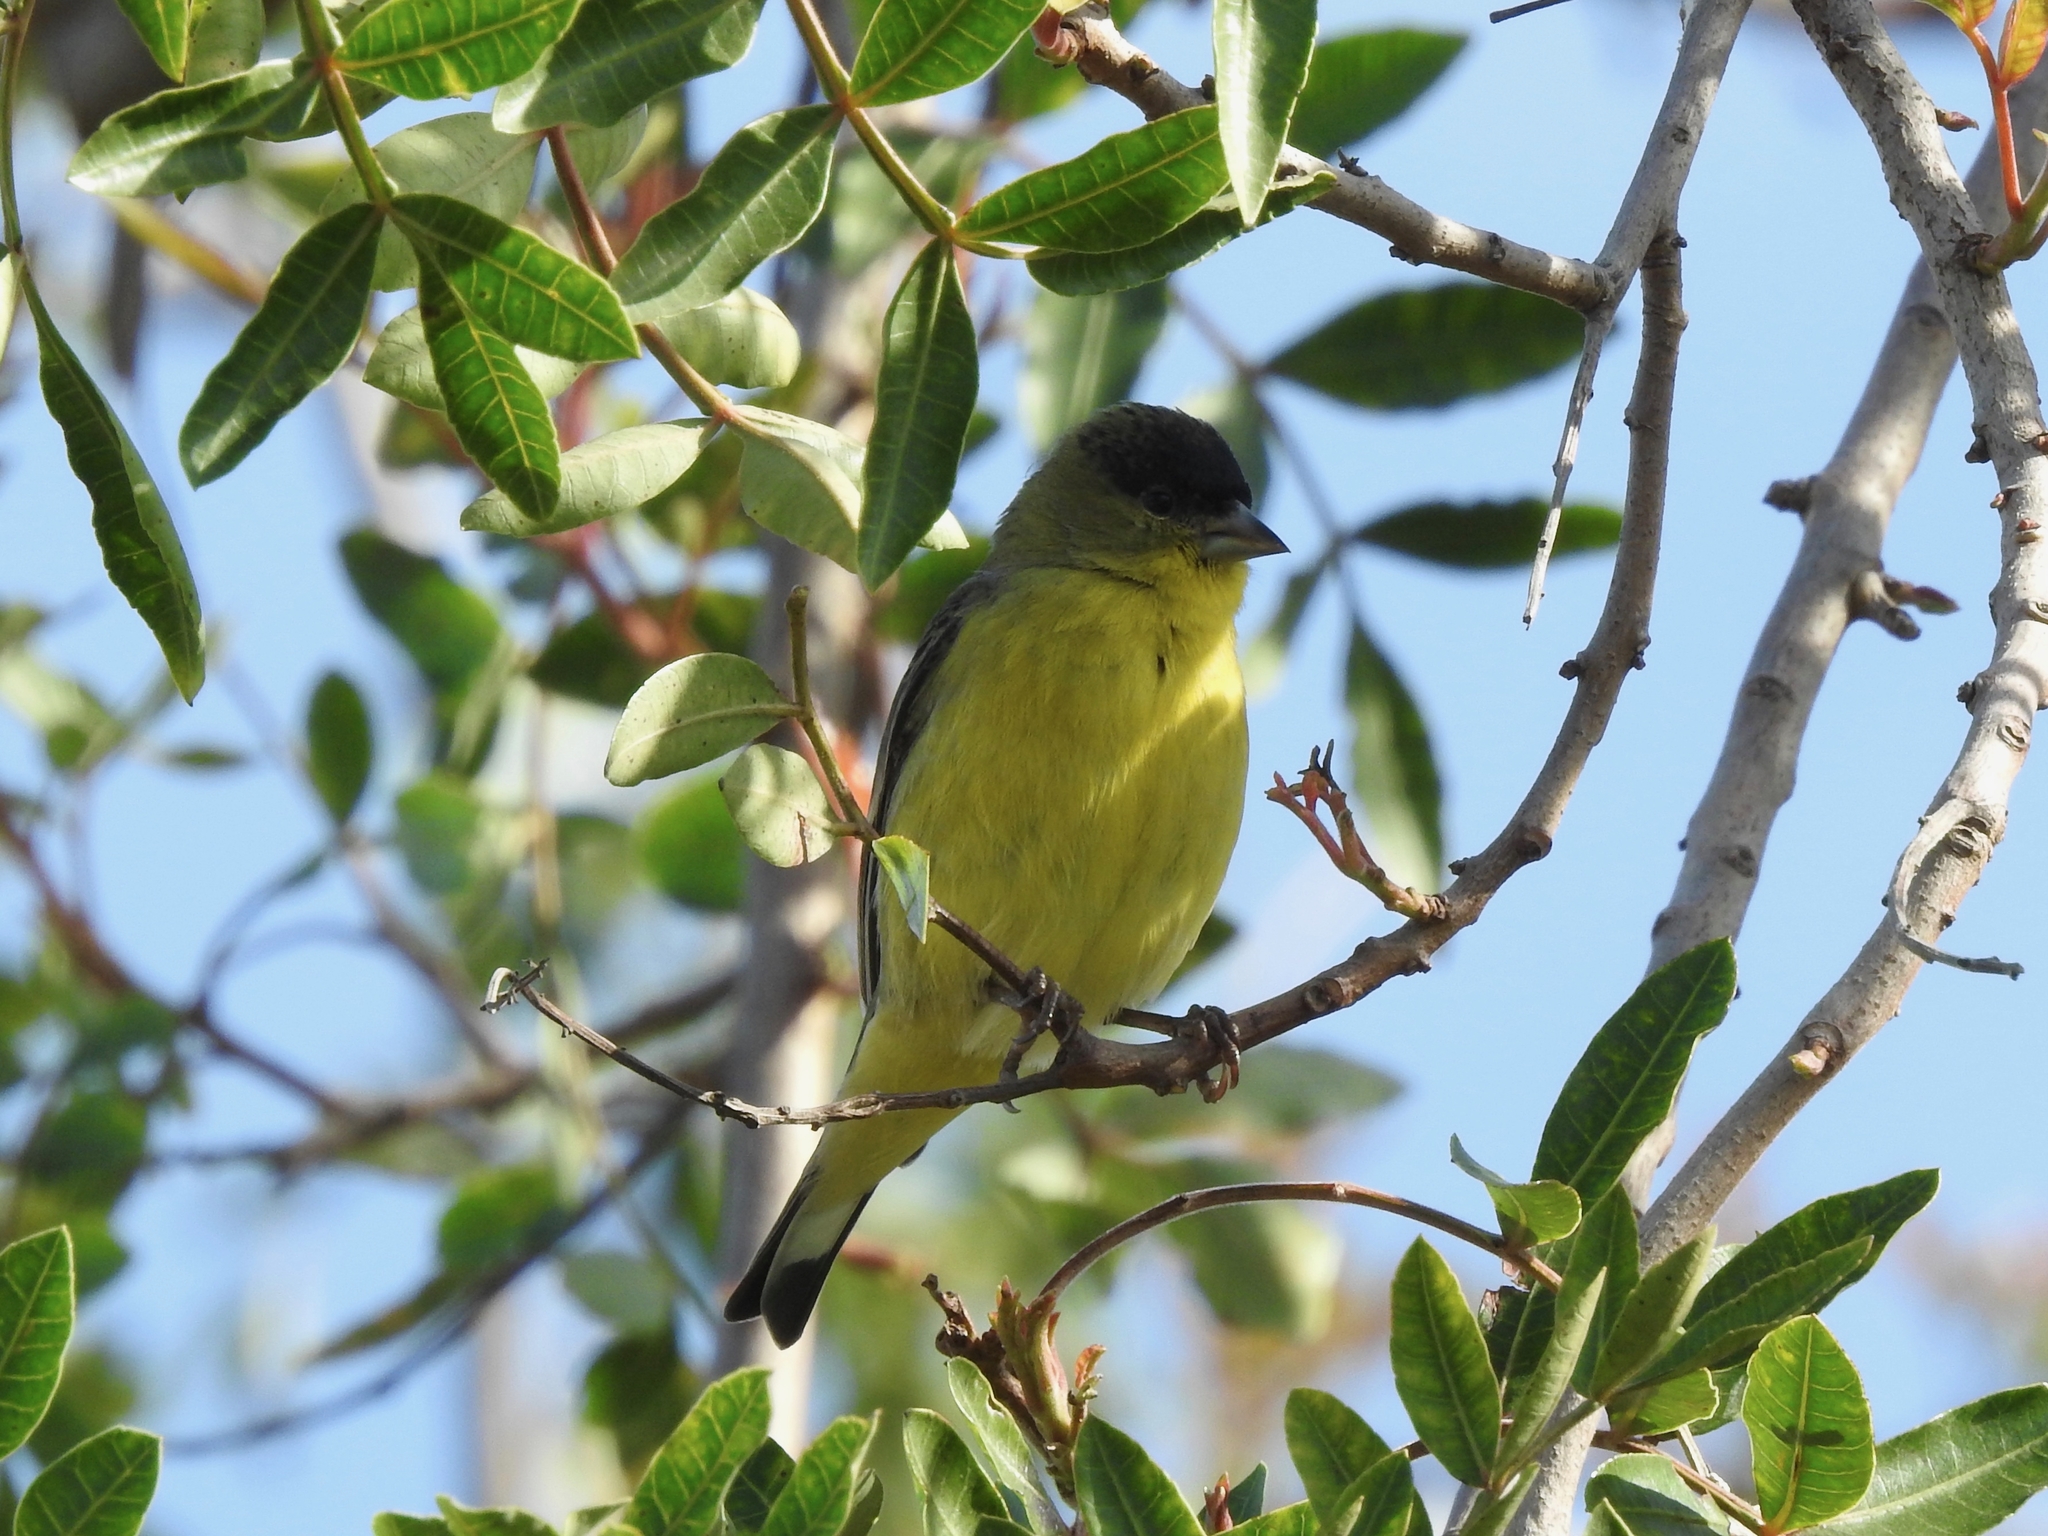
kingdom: Animalia
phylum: Chordata
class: Aves
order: Passeriformes
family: Fringillidae
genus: Spinus
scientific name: Spinus psaltria
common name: Lesser goldfinch
